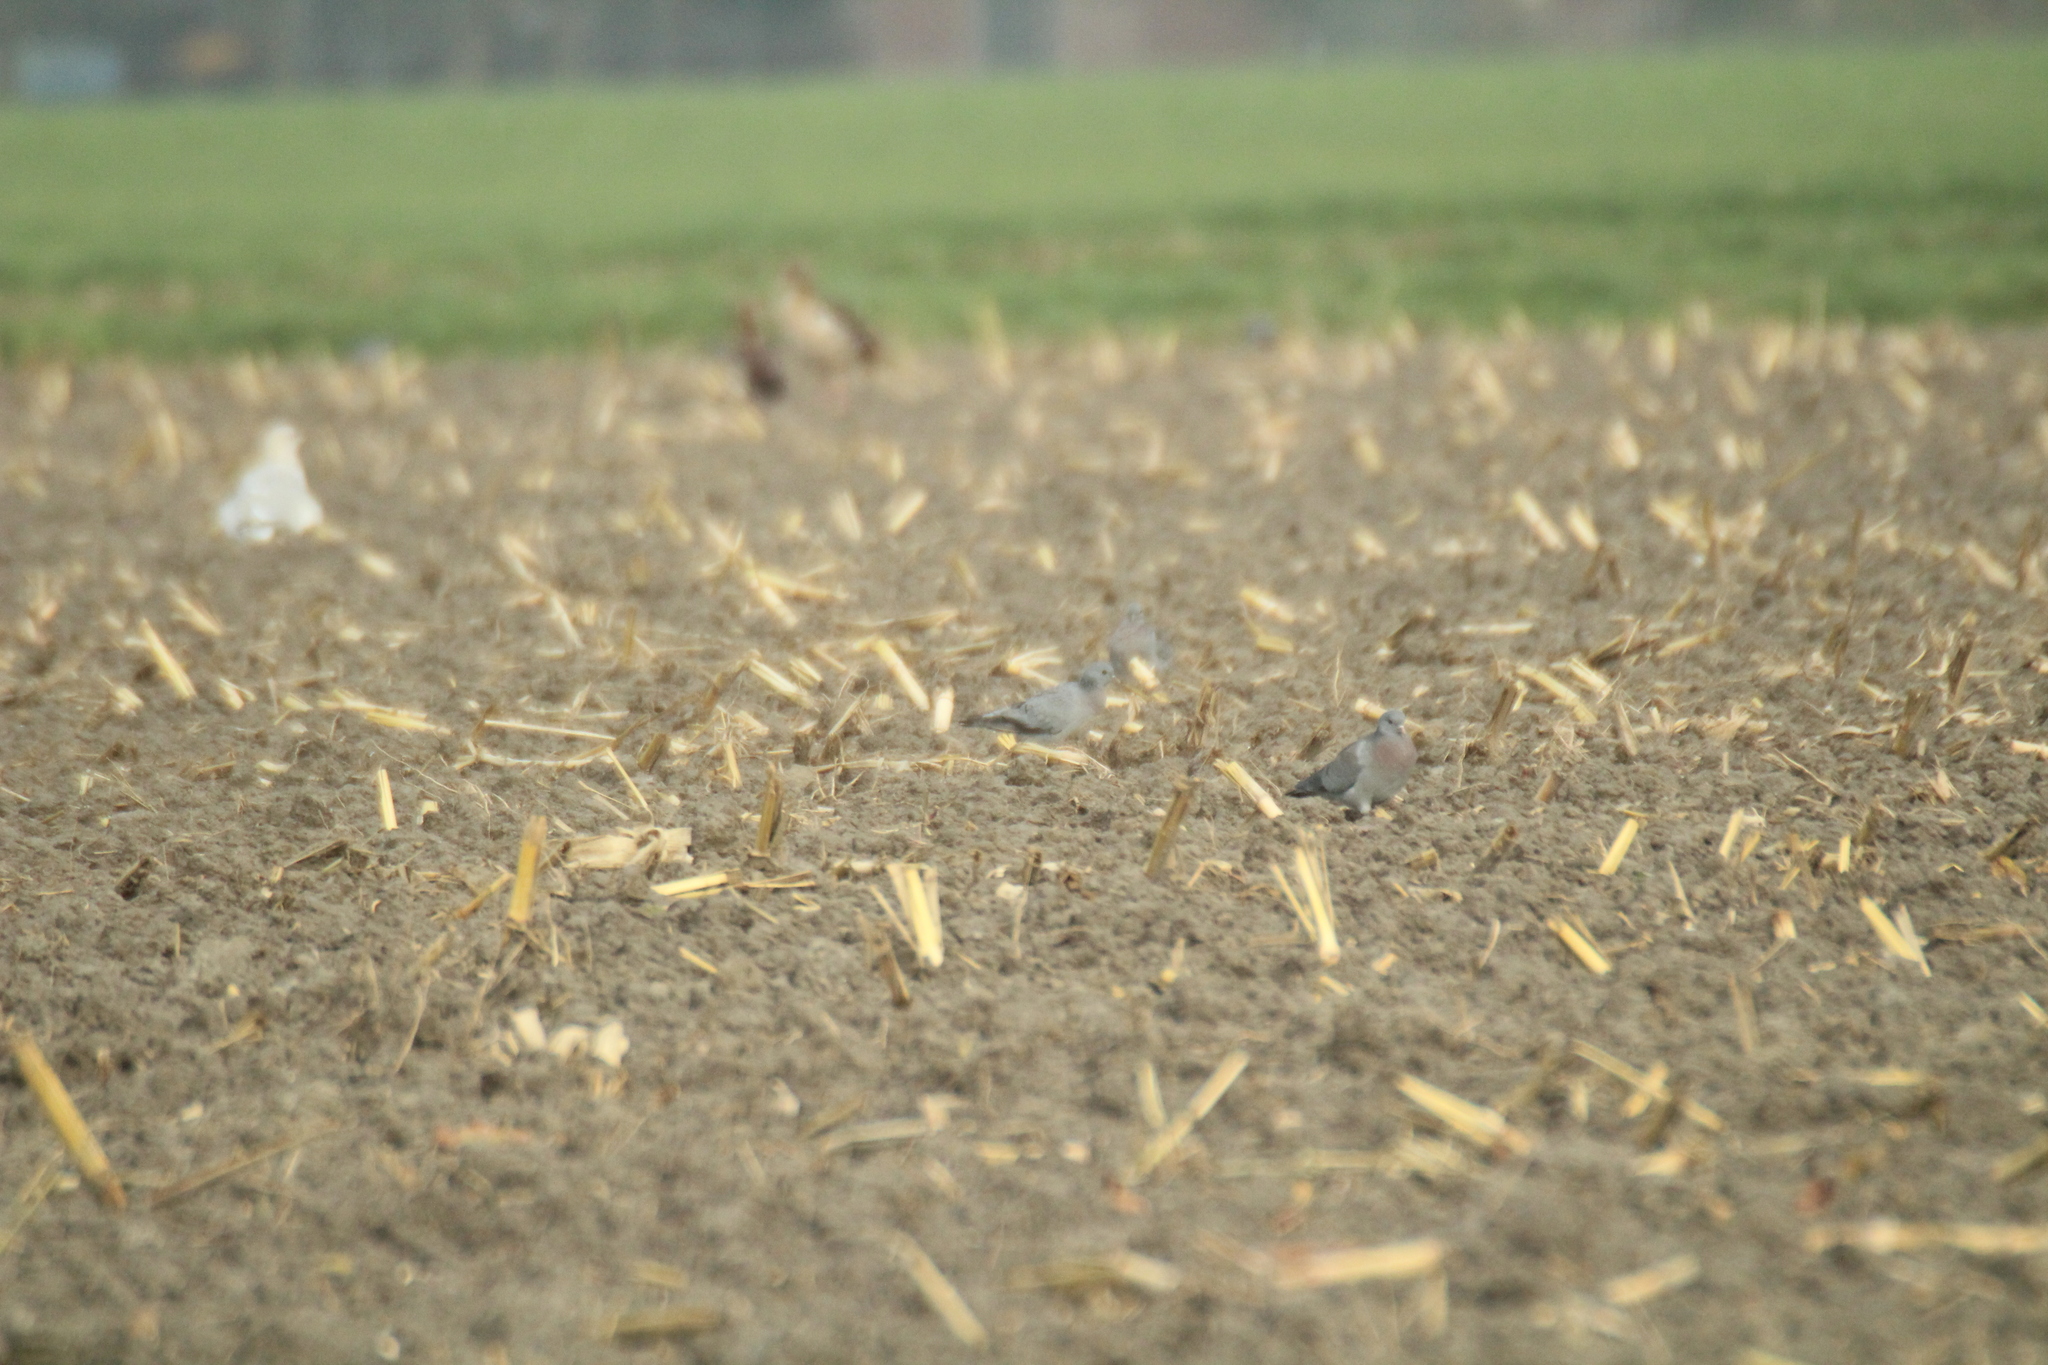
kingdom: Animalia
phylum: Chordata
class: Aves
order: Columbiformes
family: Columbidae
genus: Columba
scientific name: Columba oenas
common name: Stock dove
